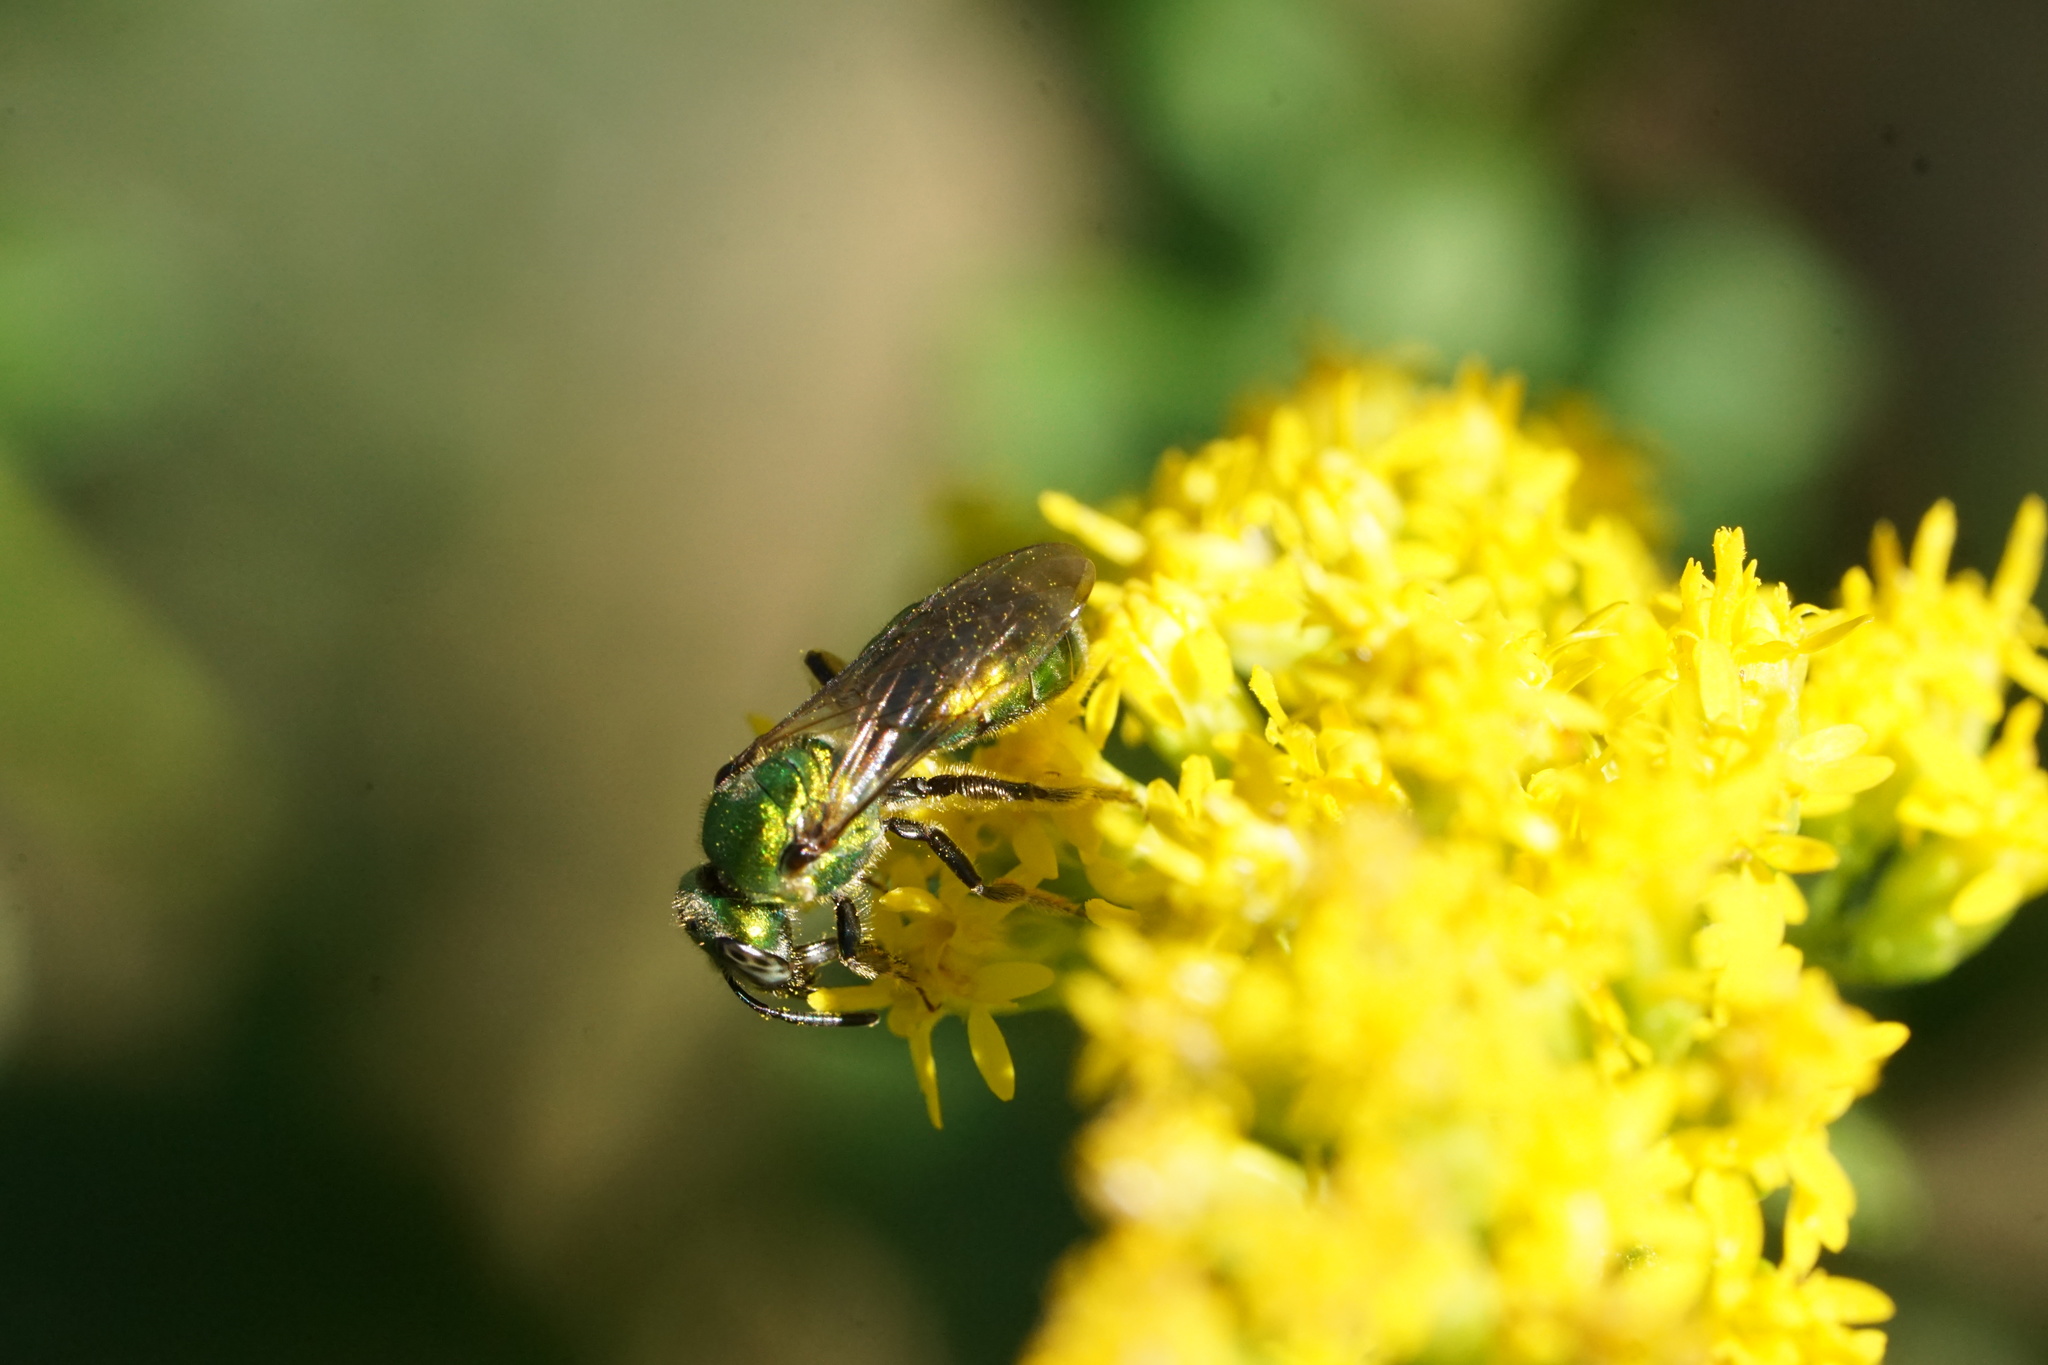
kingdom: Animalia
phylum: Arthropoda
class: Insecta
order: Hymenoptera
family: Halictidae
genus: Augochlora
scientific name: Augochlora pura
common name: Pure green sweat bee
